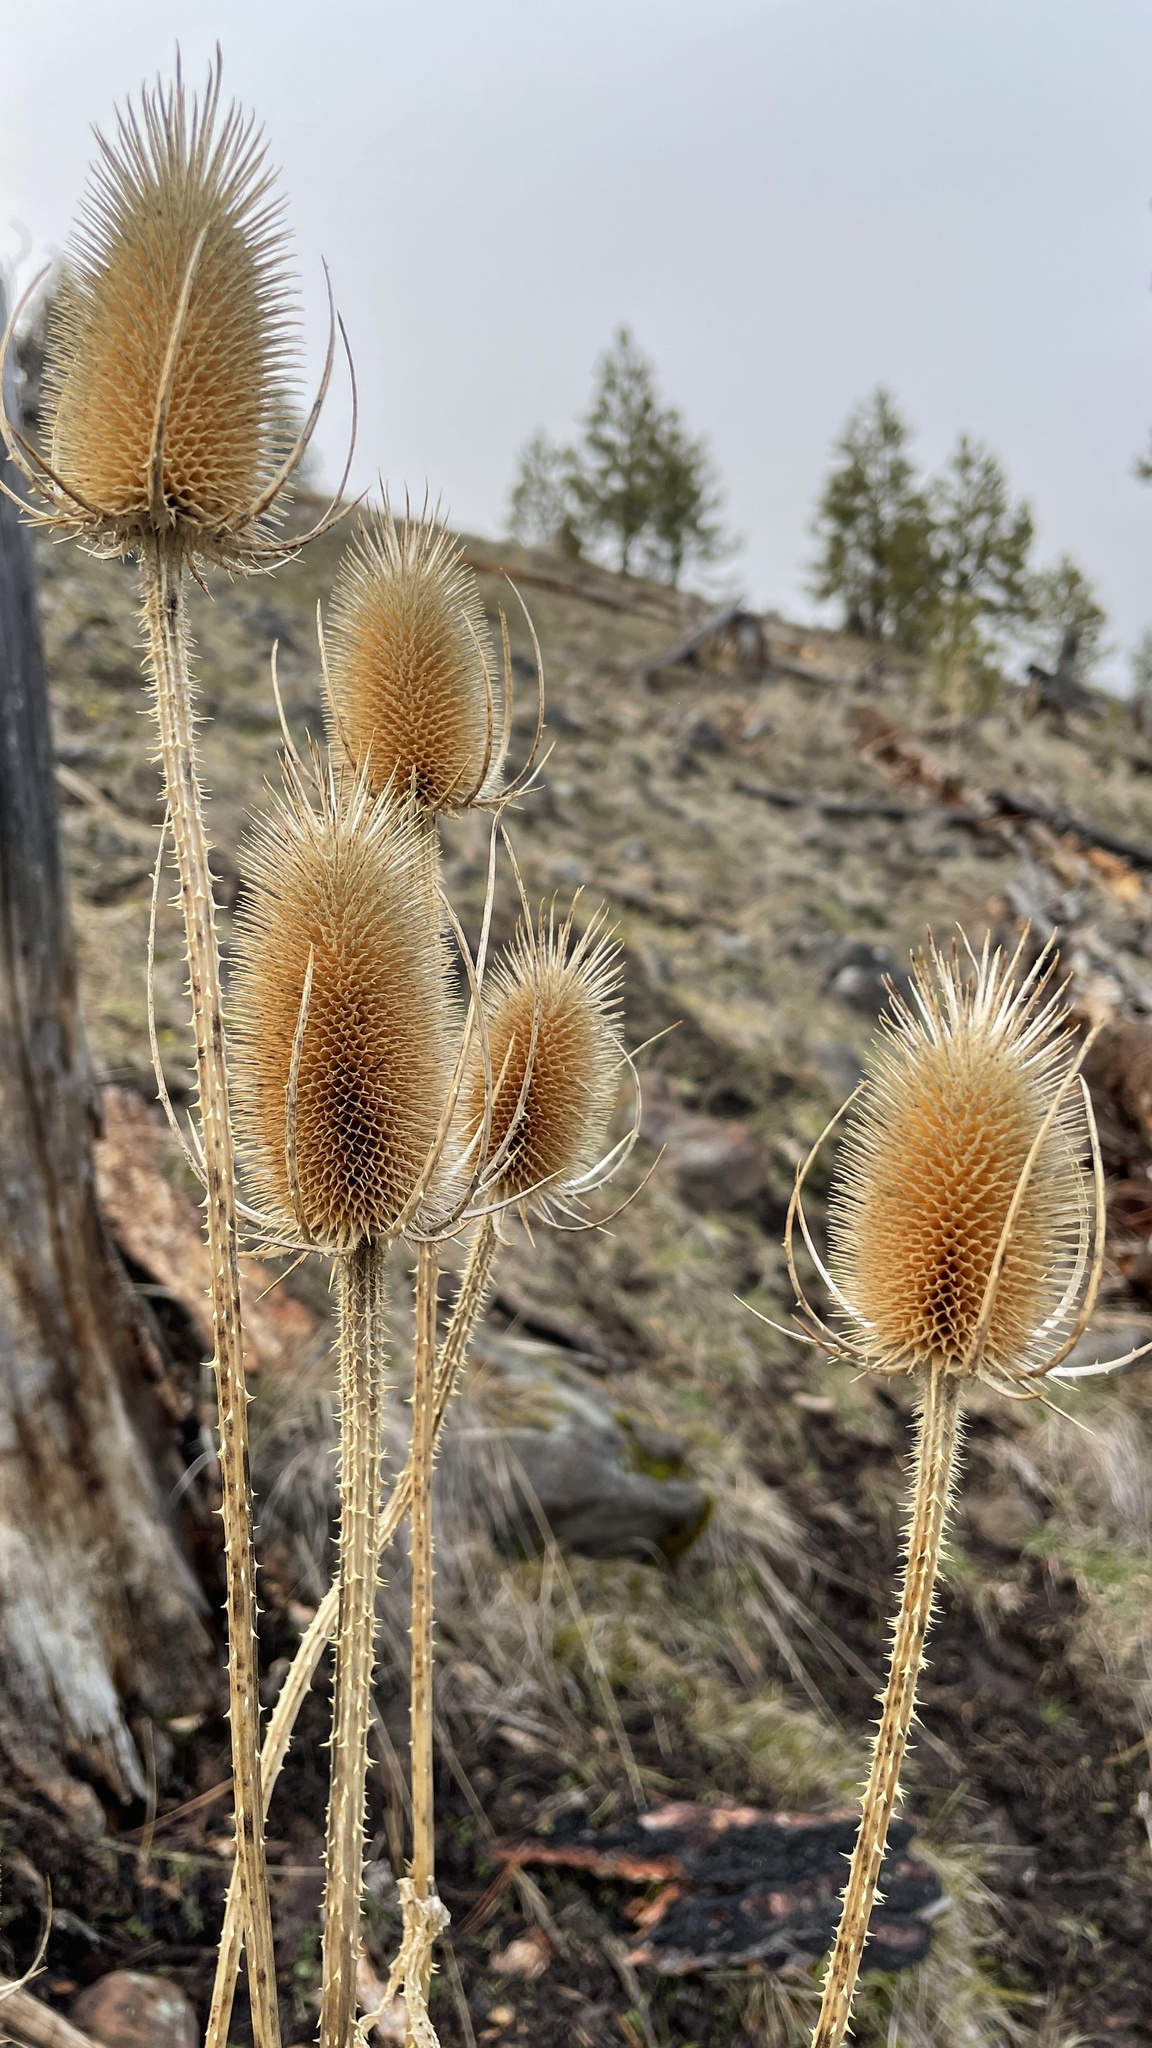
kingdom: Plantae
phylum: Tracheophyta
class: Magnoliopsida
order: Dipsacales
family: Caprifoliaceae
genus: Dipsacus
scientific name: Dipsacus fullonum
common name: Teasel
